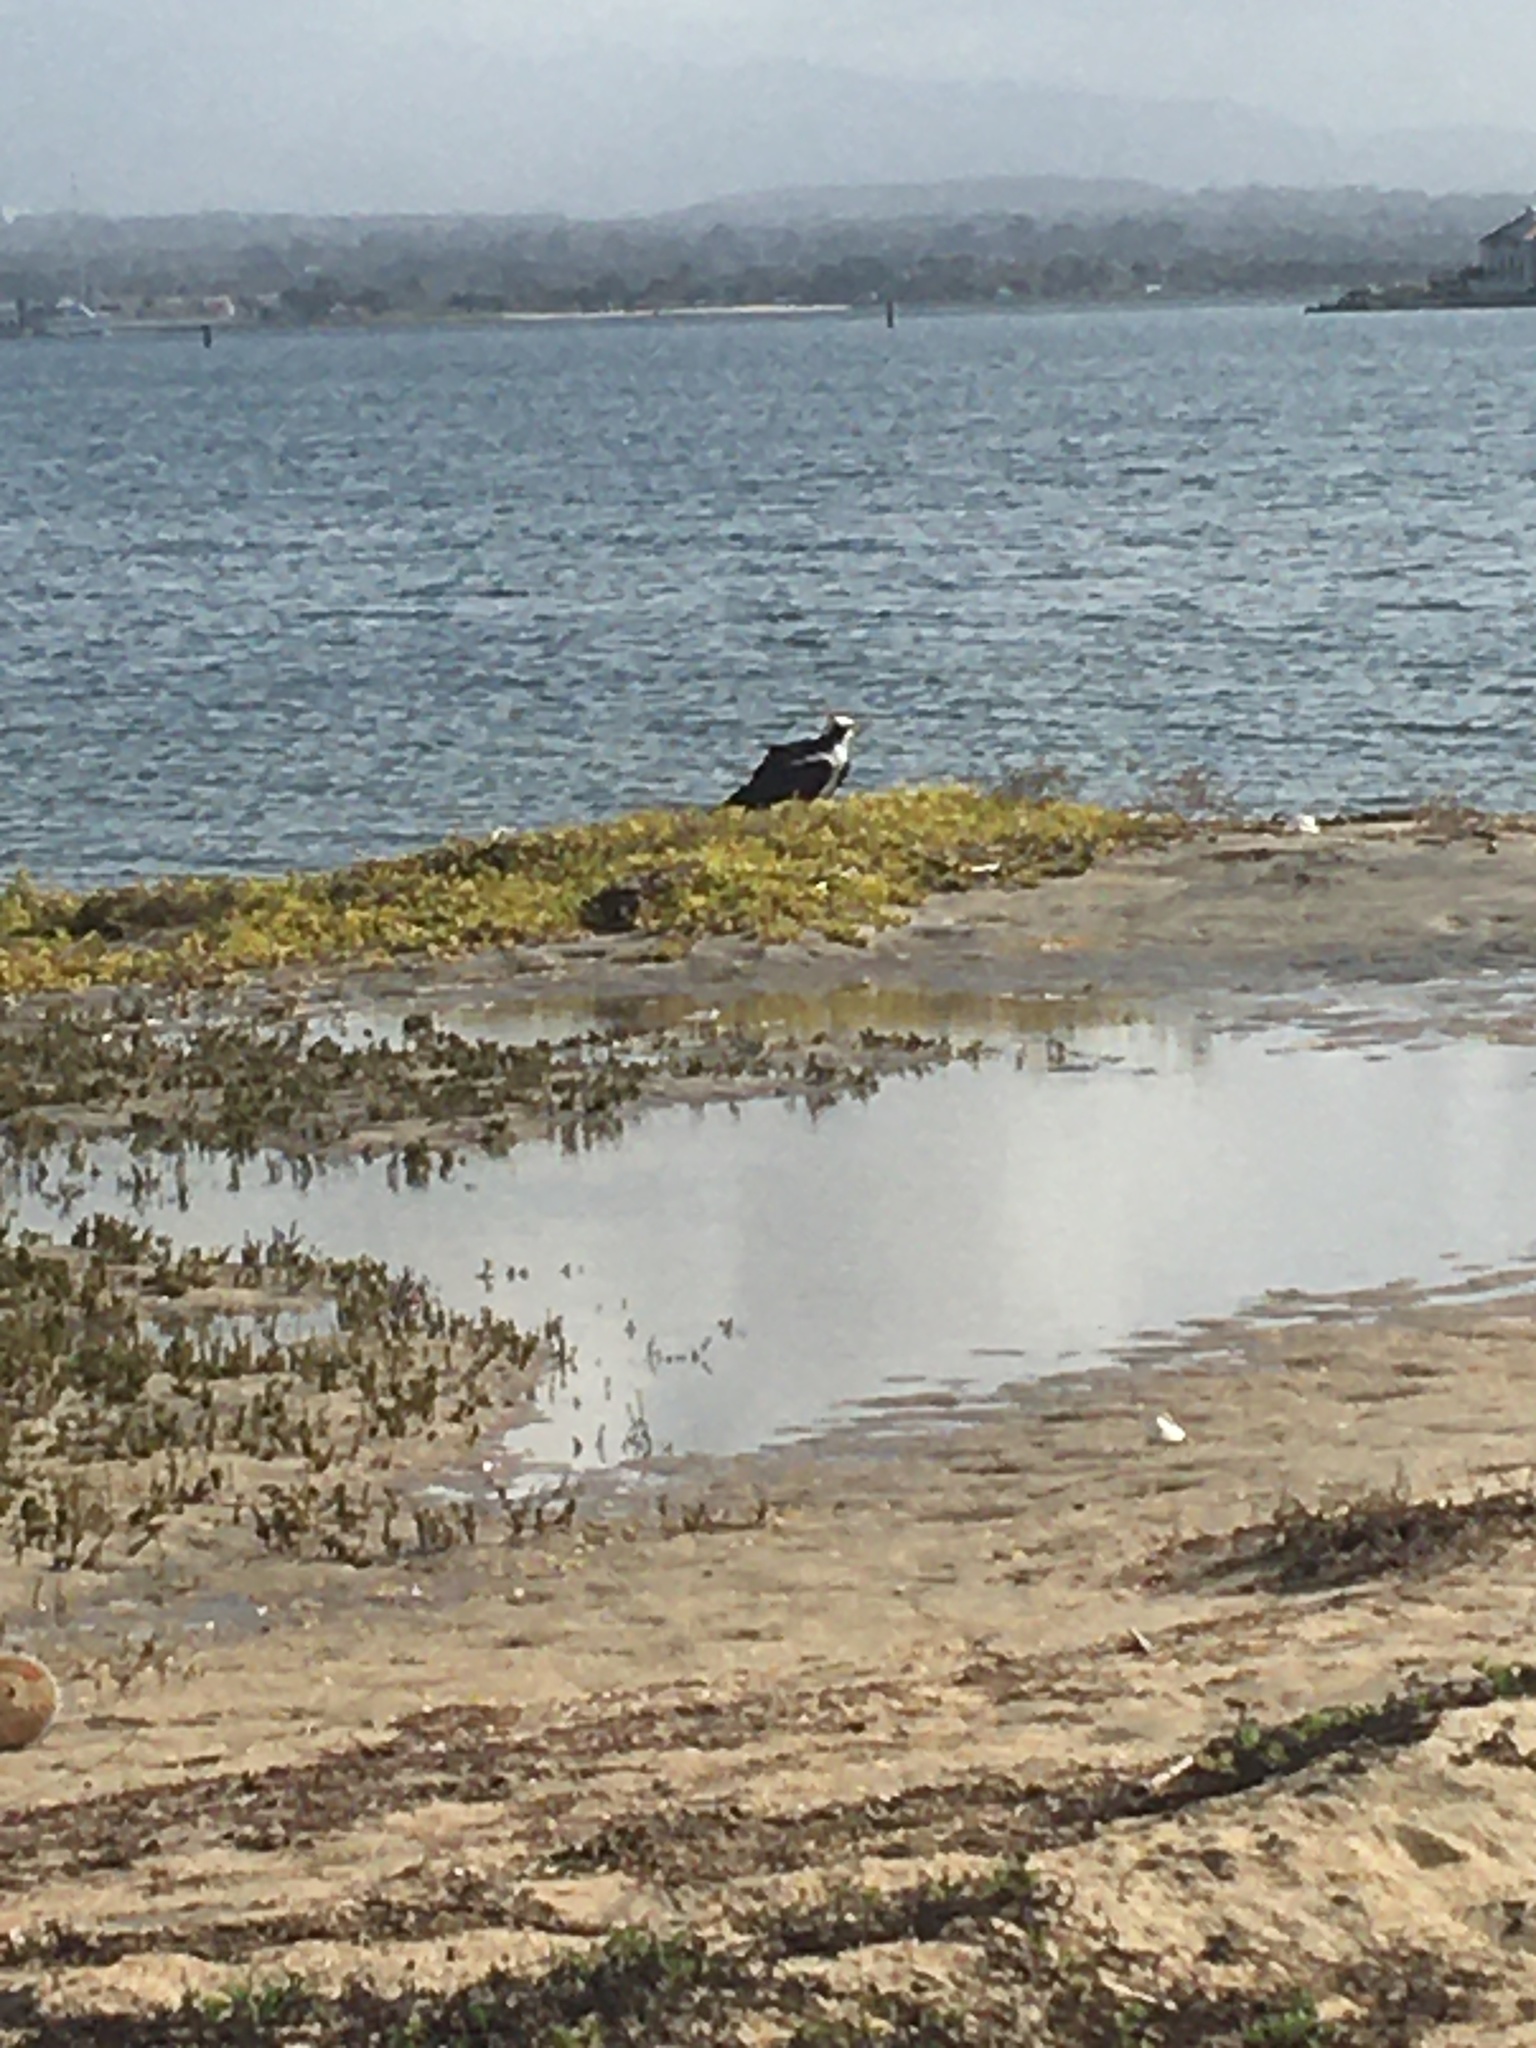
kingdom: Animalia
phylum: Chordata
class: Aves
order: Accipitriformes
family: Pandionidae
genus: Pandion
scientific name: Pandion haliaetus
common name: Osprey
